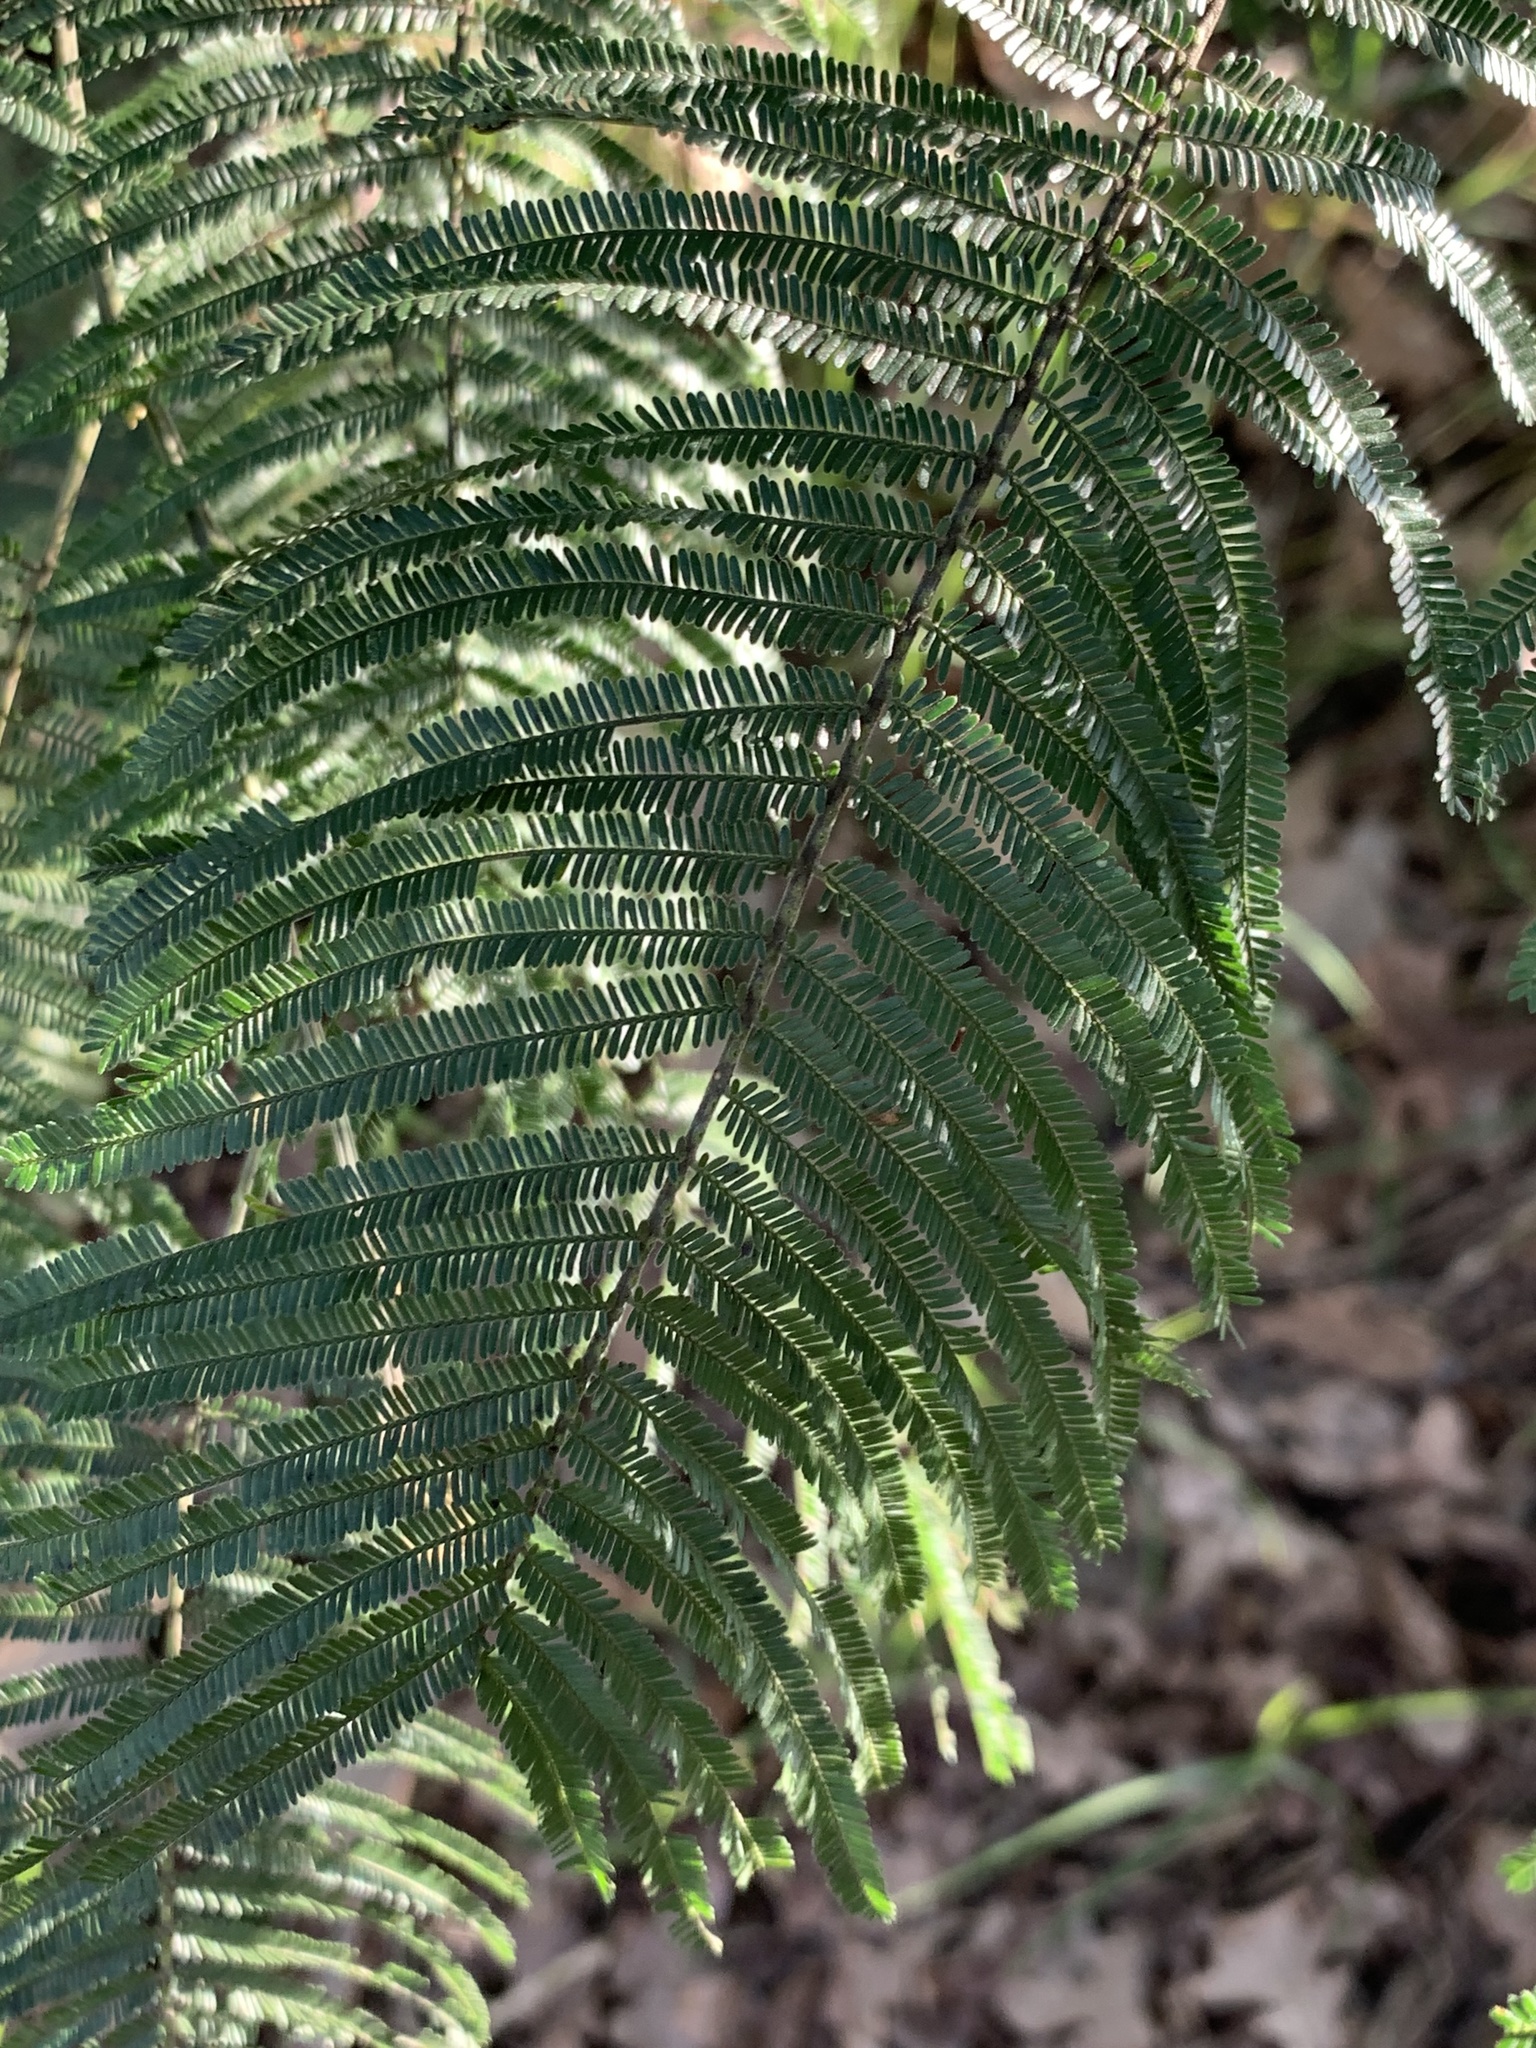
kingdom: Plantae
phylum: Tracheophyta
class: Magnoliopsida
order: Fabales
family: Fabaceae
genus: Acacia
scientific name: Acacia mearnsii
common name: Black wattle
